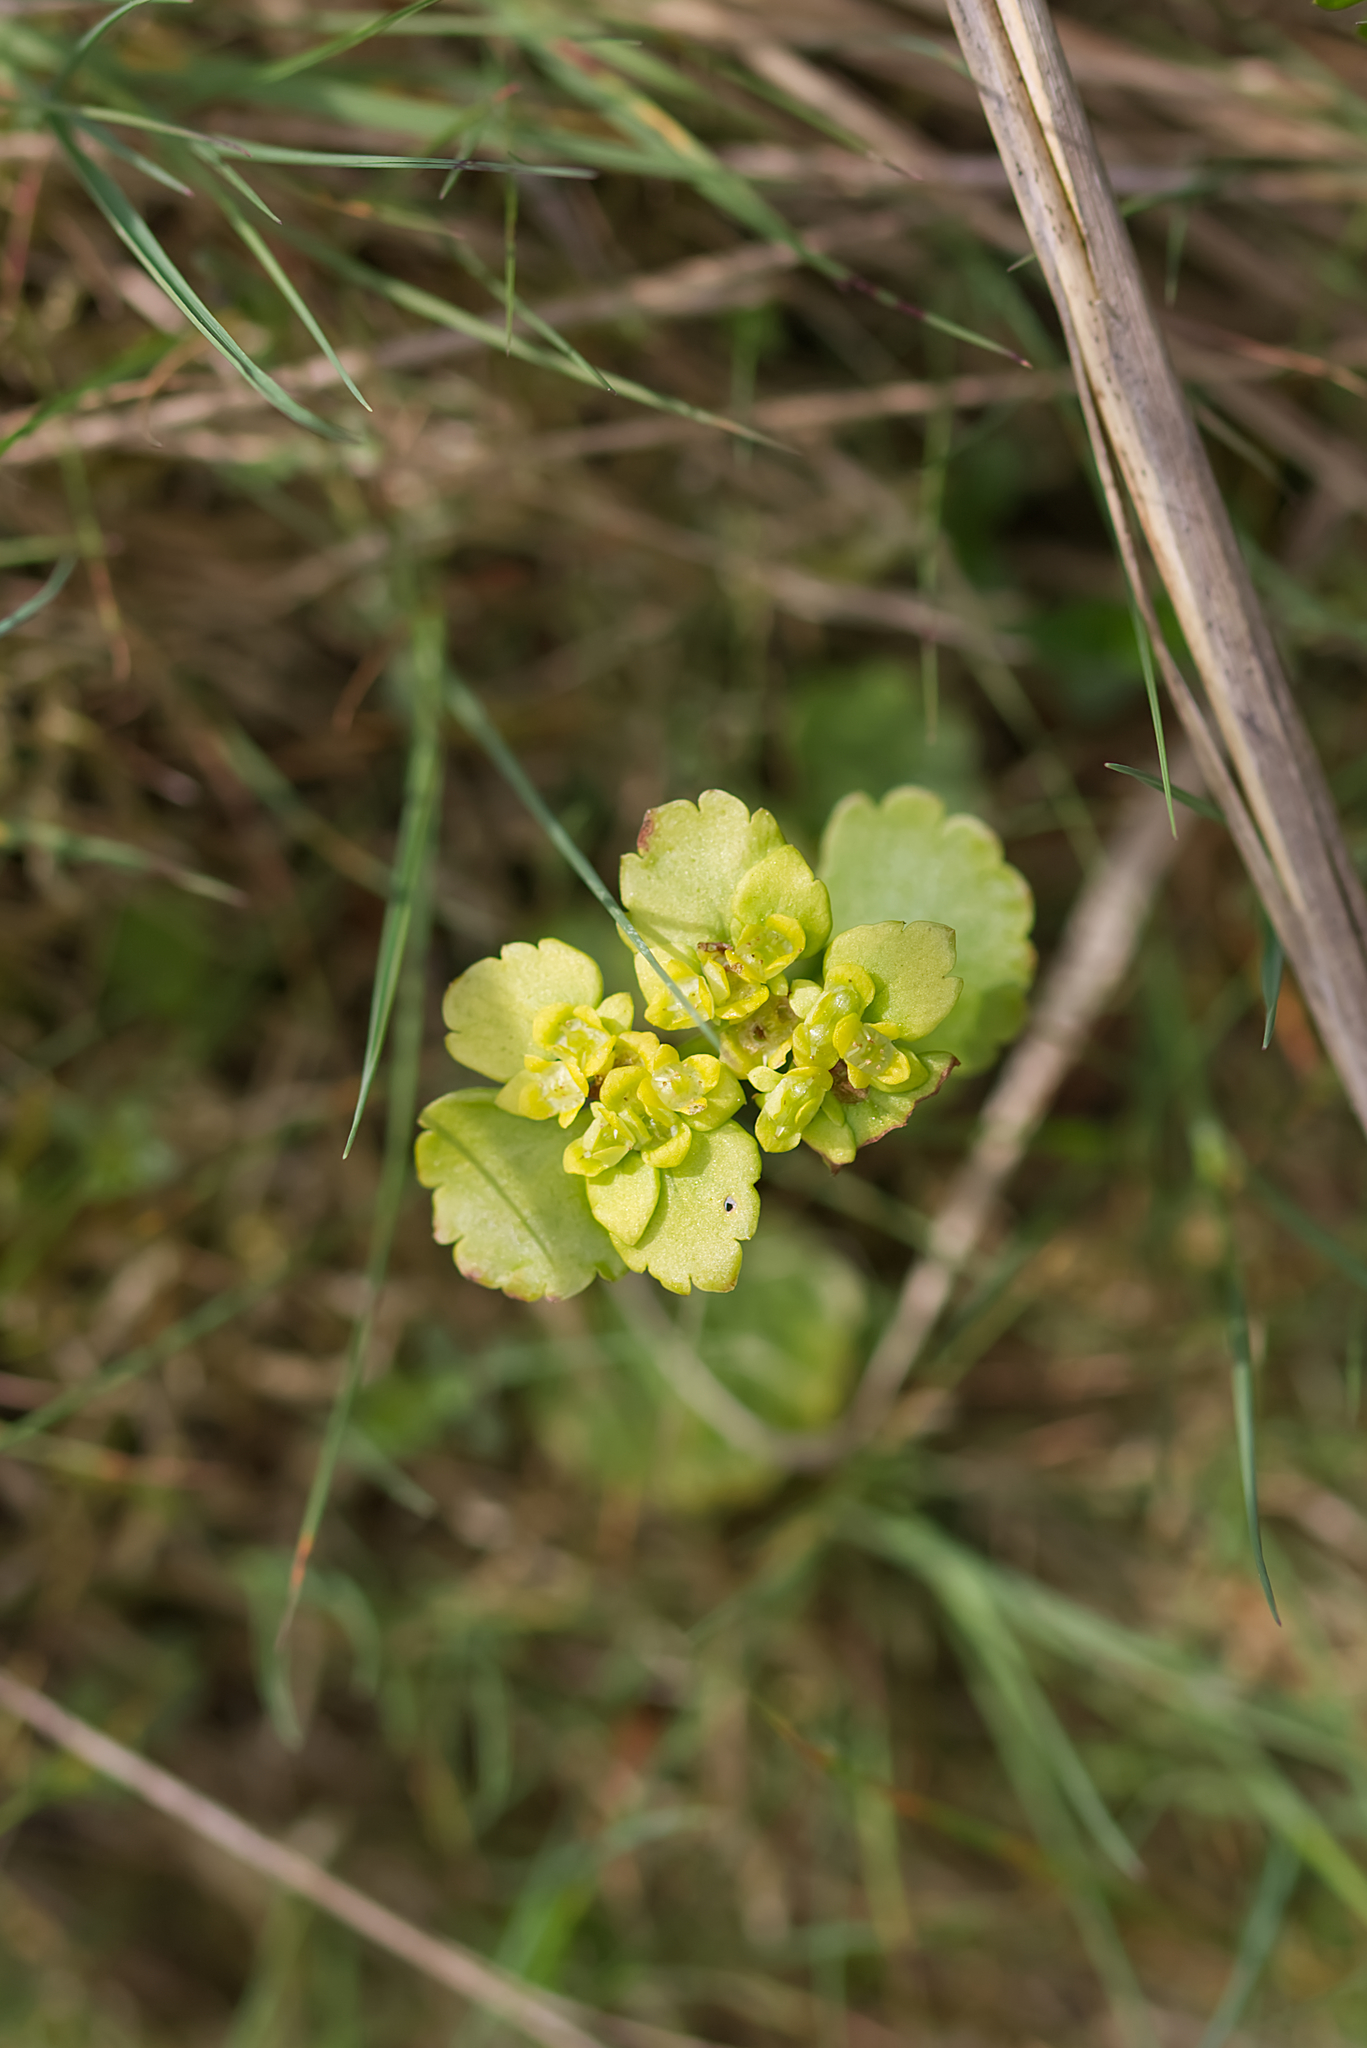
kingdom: Plantae
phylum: Tracheophyta
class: Magnoliopsida
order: Saxifragales
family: Saxifragaceae
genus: Chrysosplenium
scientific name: Chrysosplenium alternifolium
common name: Alternate-leaved golden-saxifrage
